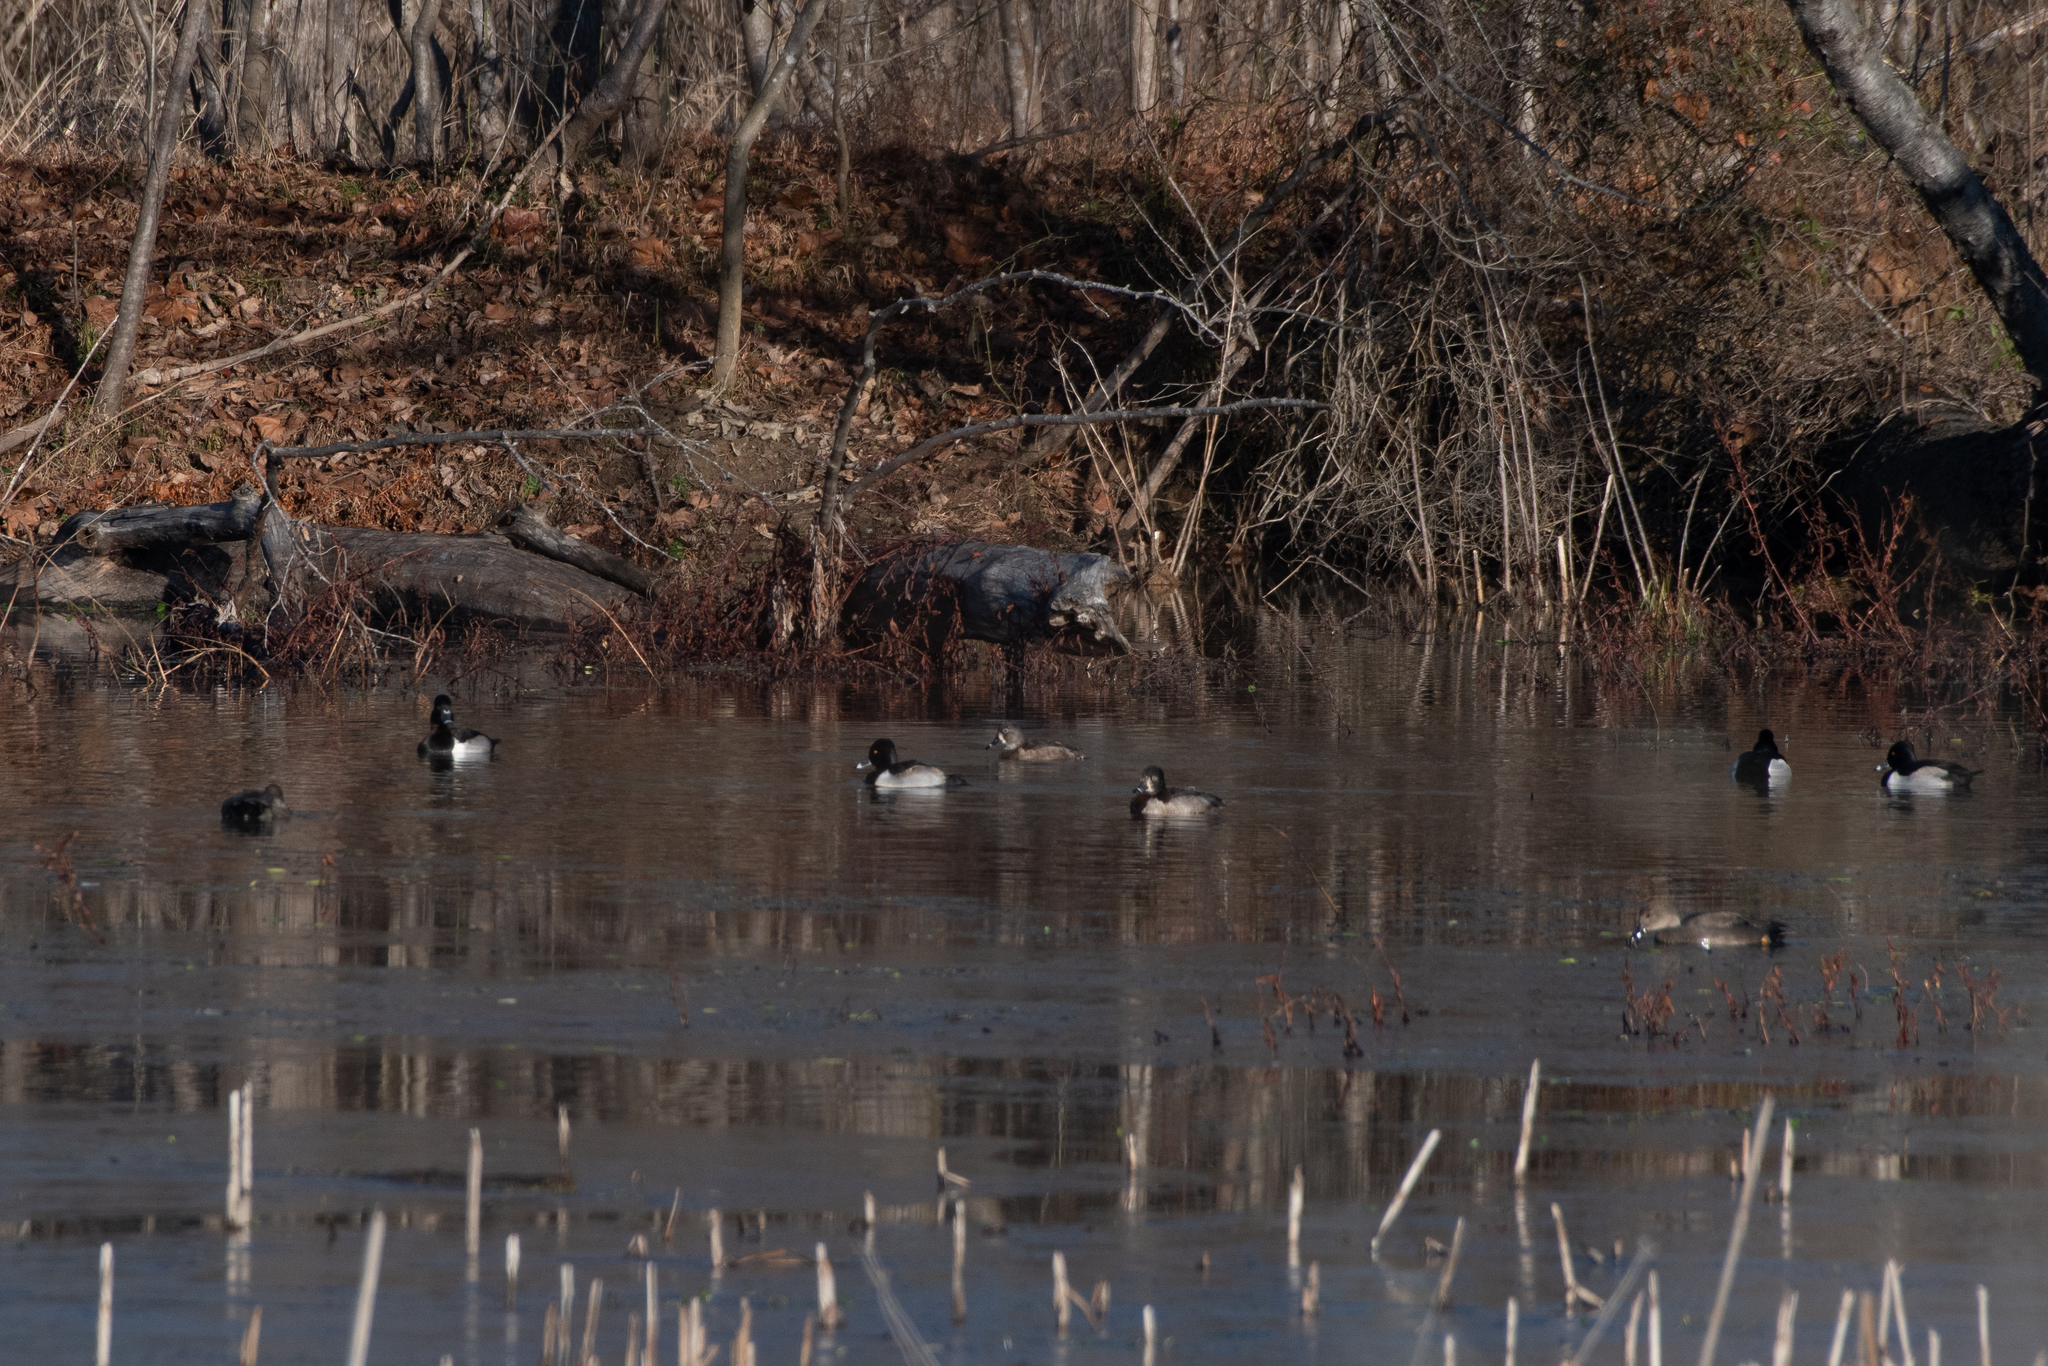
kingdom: Animalia
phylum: Chordata
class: Aves
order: Anseriformes
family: Anatidae
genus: Aythya
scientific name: Aythya collaris
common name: Ring-necked duck
